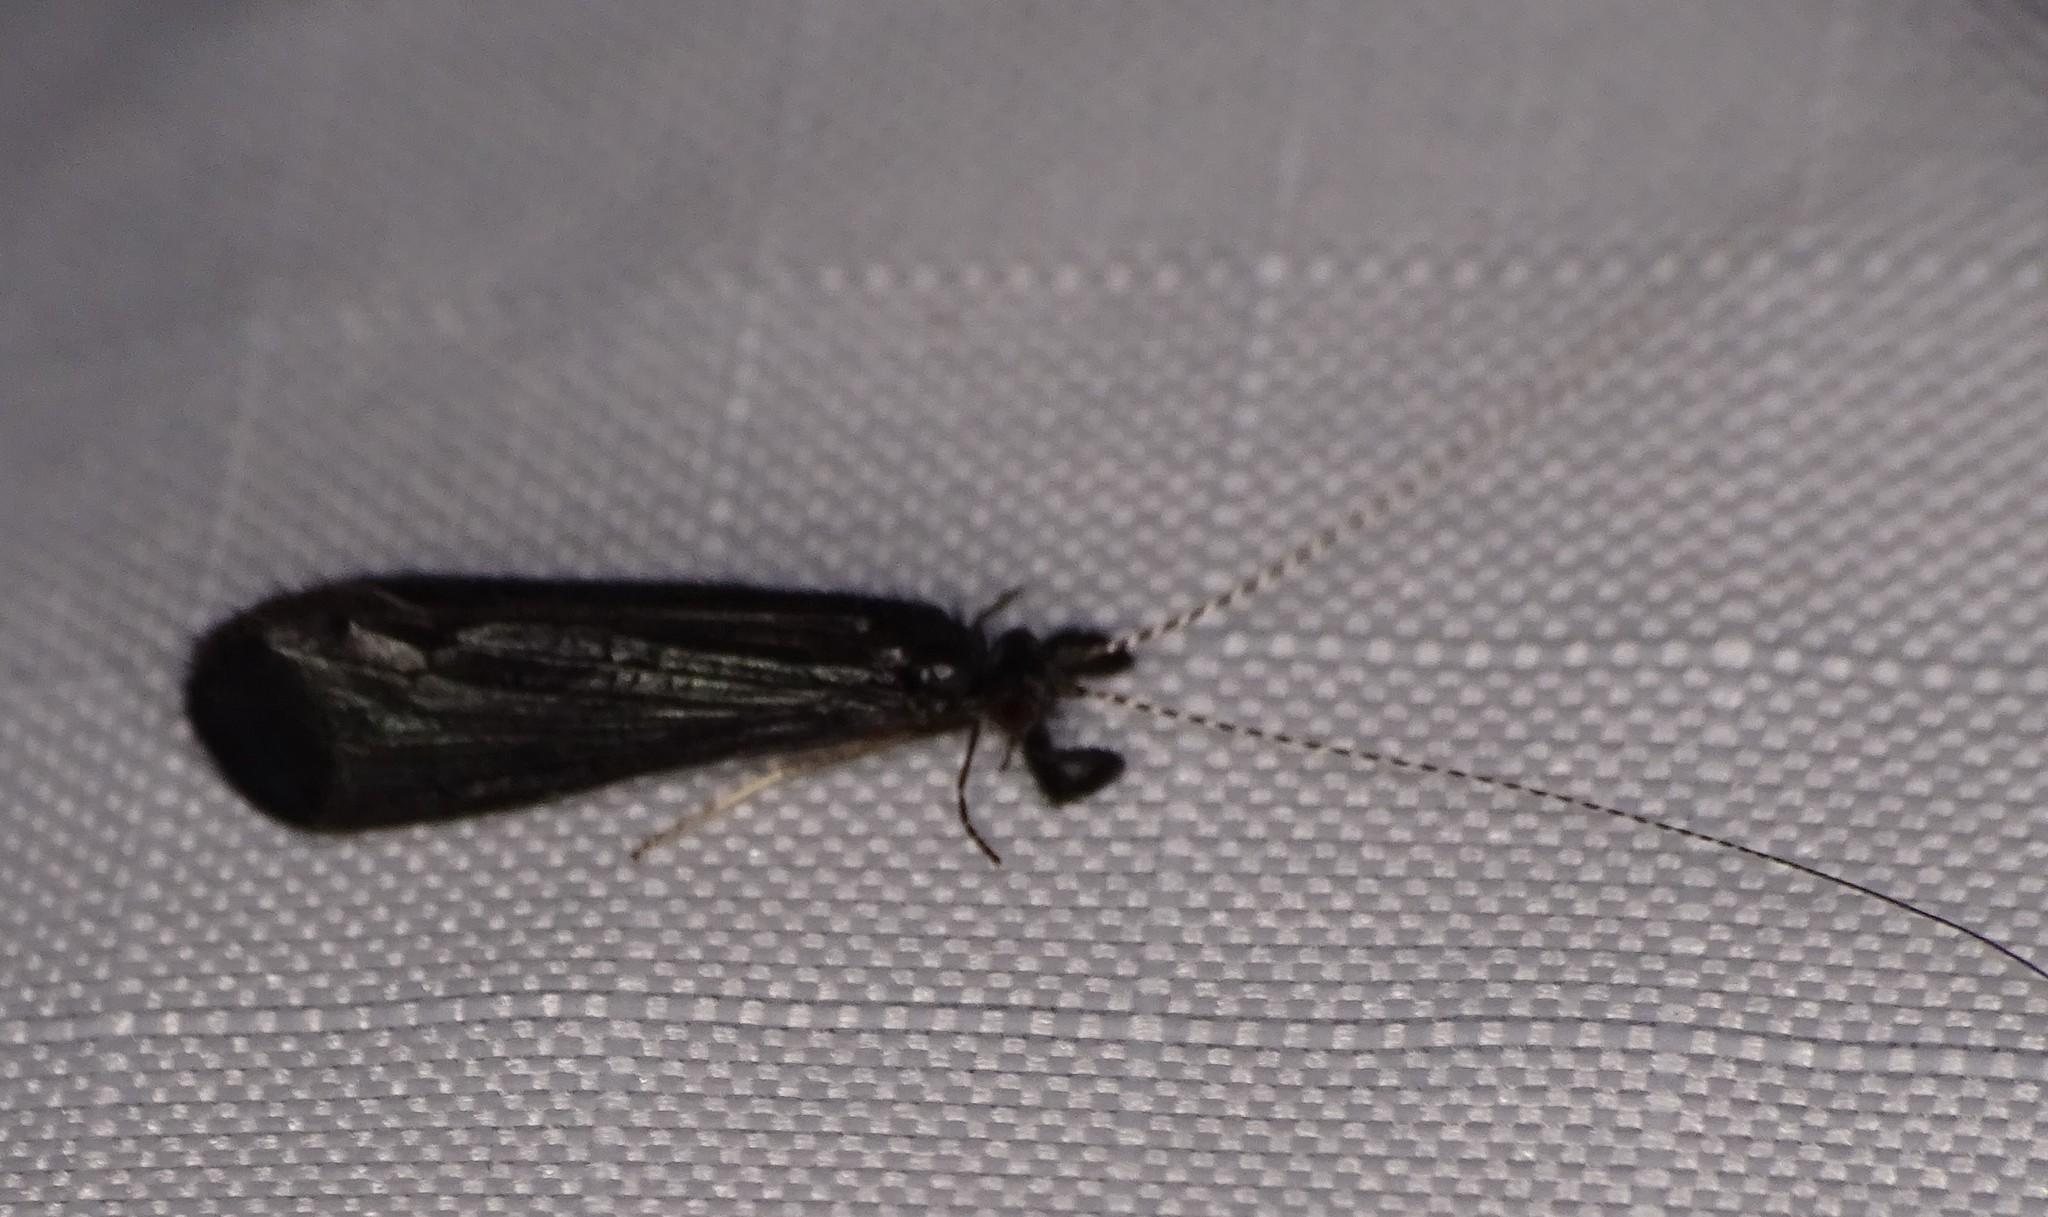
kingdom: Animalia
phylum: Arthropoda
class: Insecta
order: Trichoptera
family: Leptoceridae
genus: Mystacides
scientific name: Mystacides sepulchralis
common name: Black dancer caddisfly
